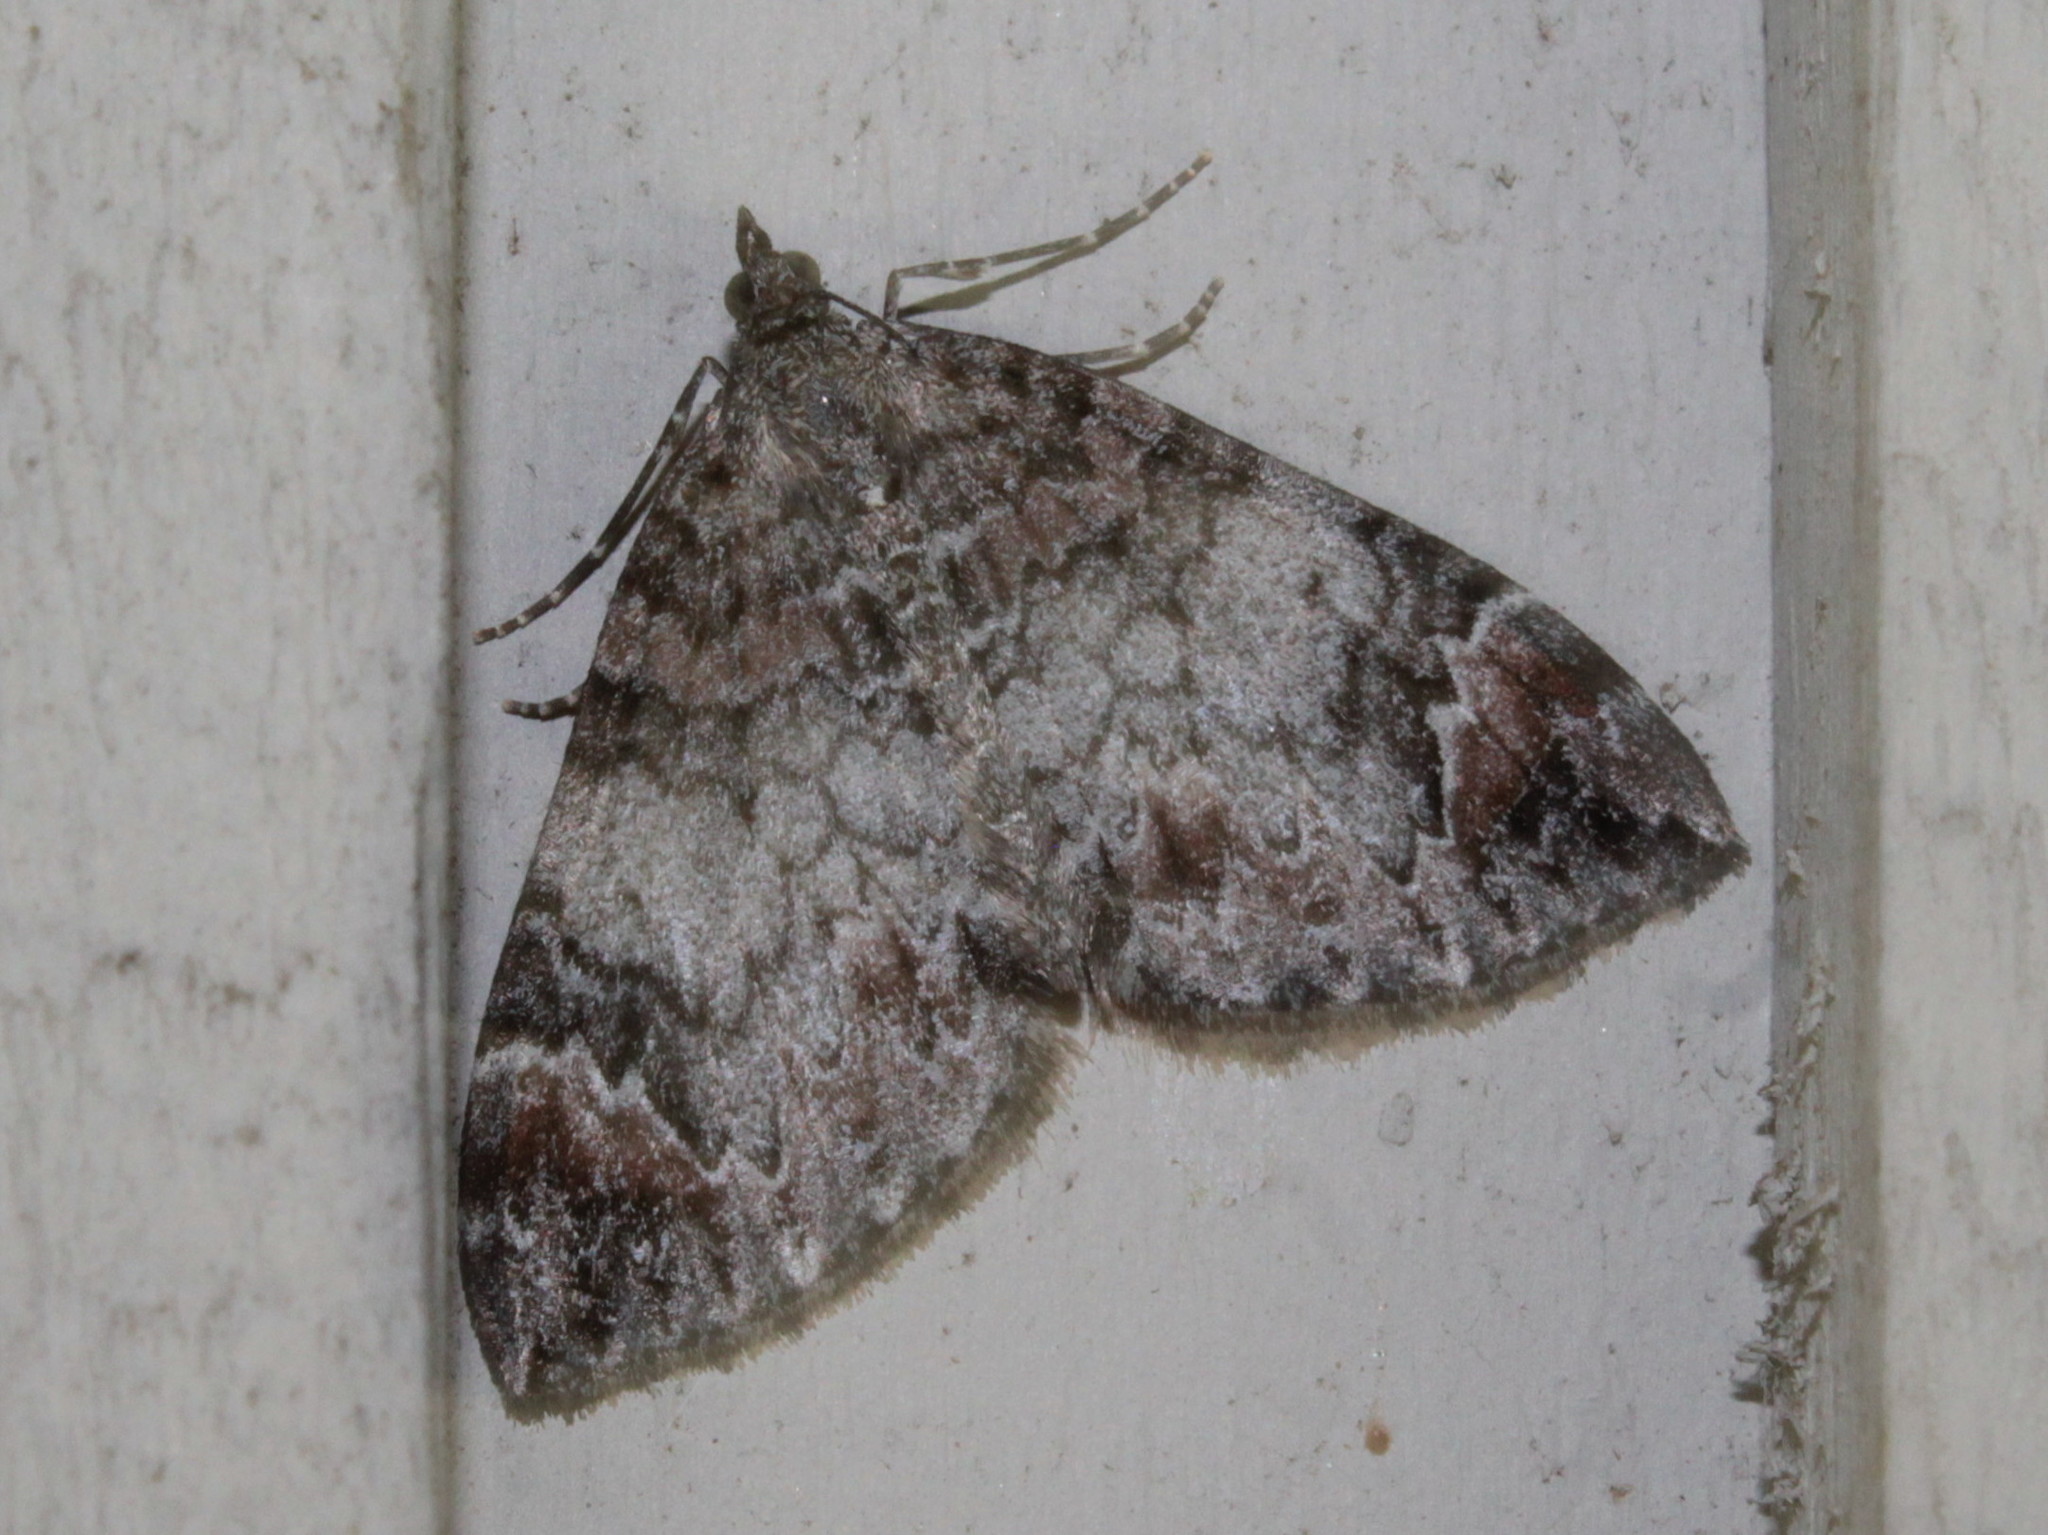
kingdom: Animalia
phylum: Arthropoda
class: Insecta
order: Lepidoptera
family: Geometridae
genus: Dysstroma
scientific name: Dysstroma citrata
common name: Dark marbled carpet
